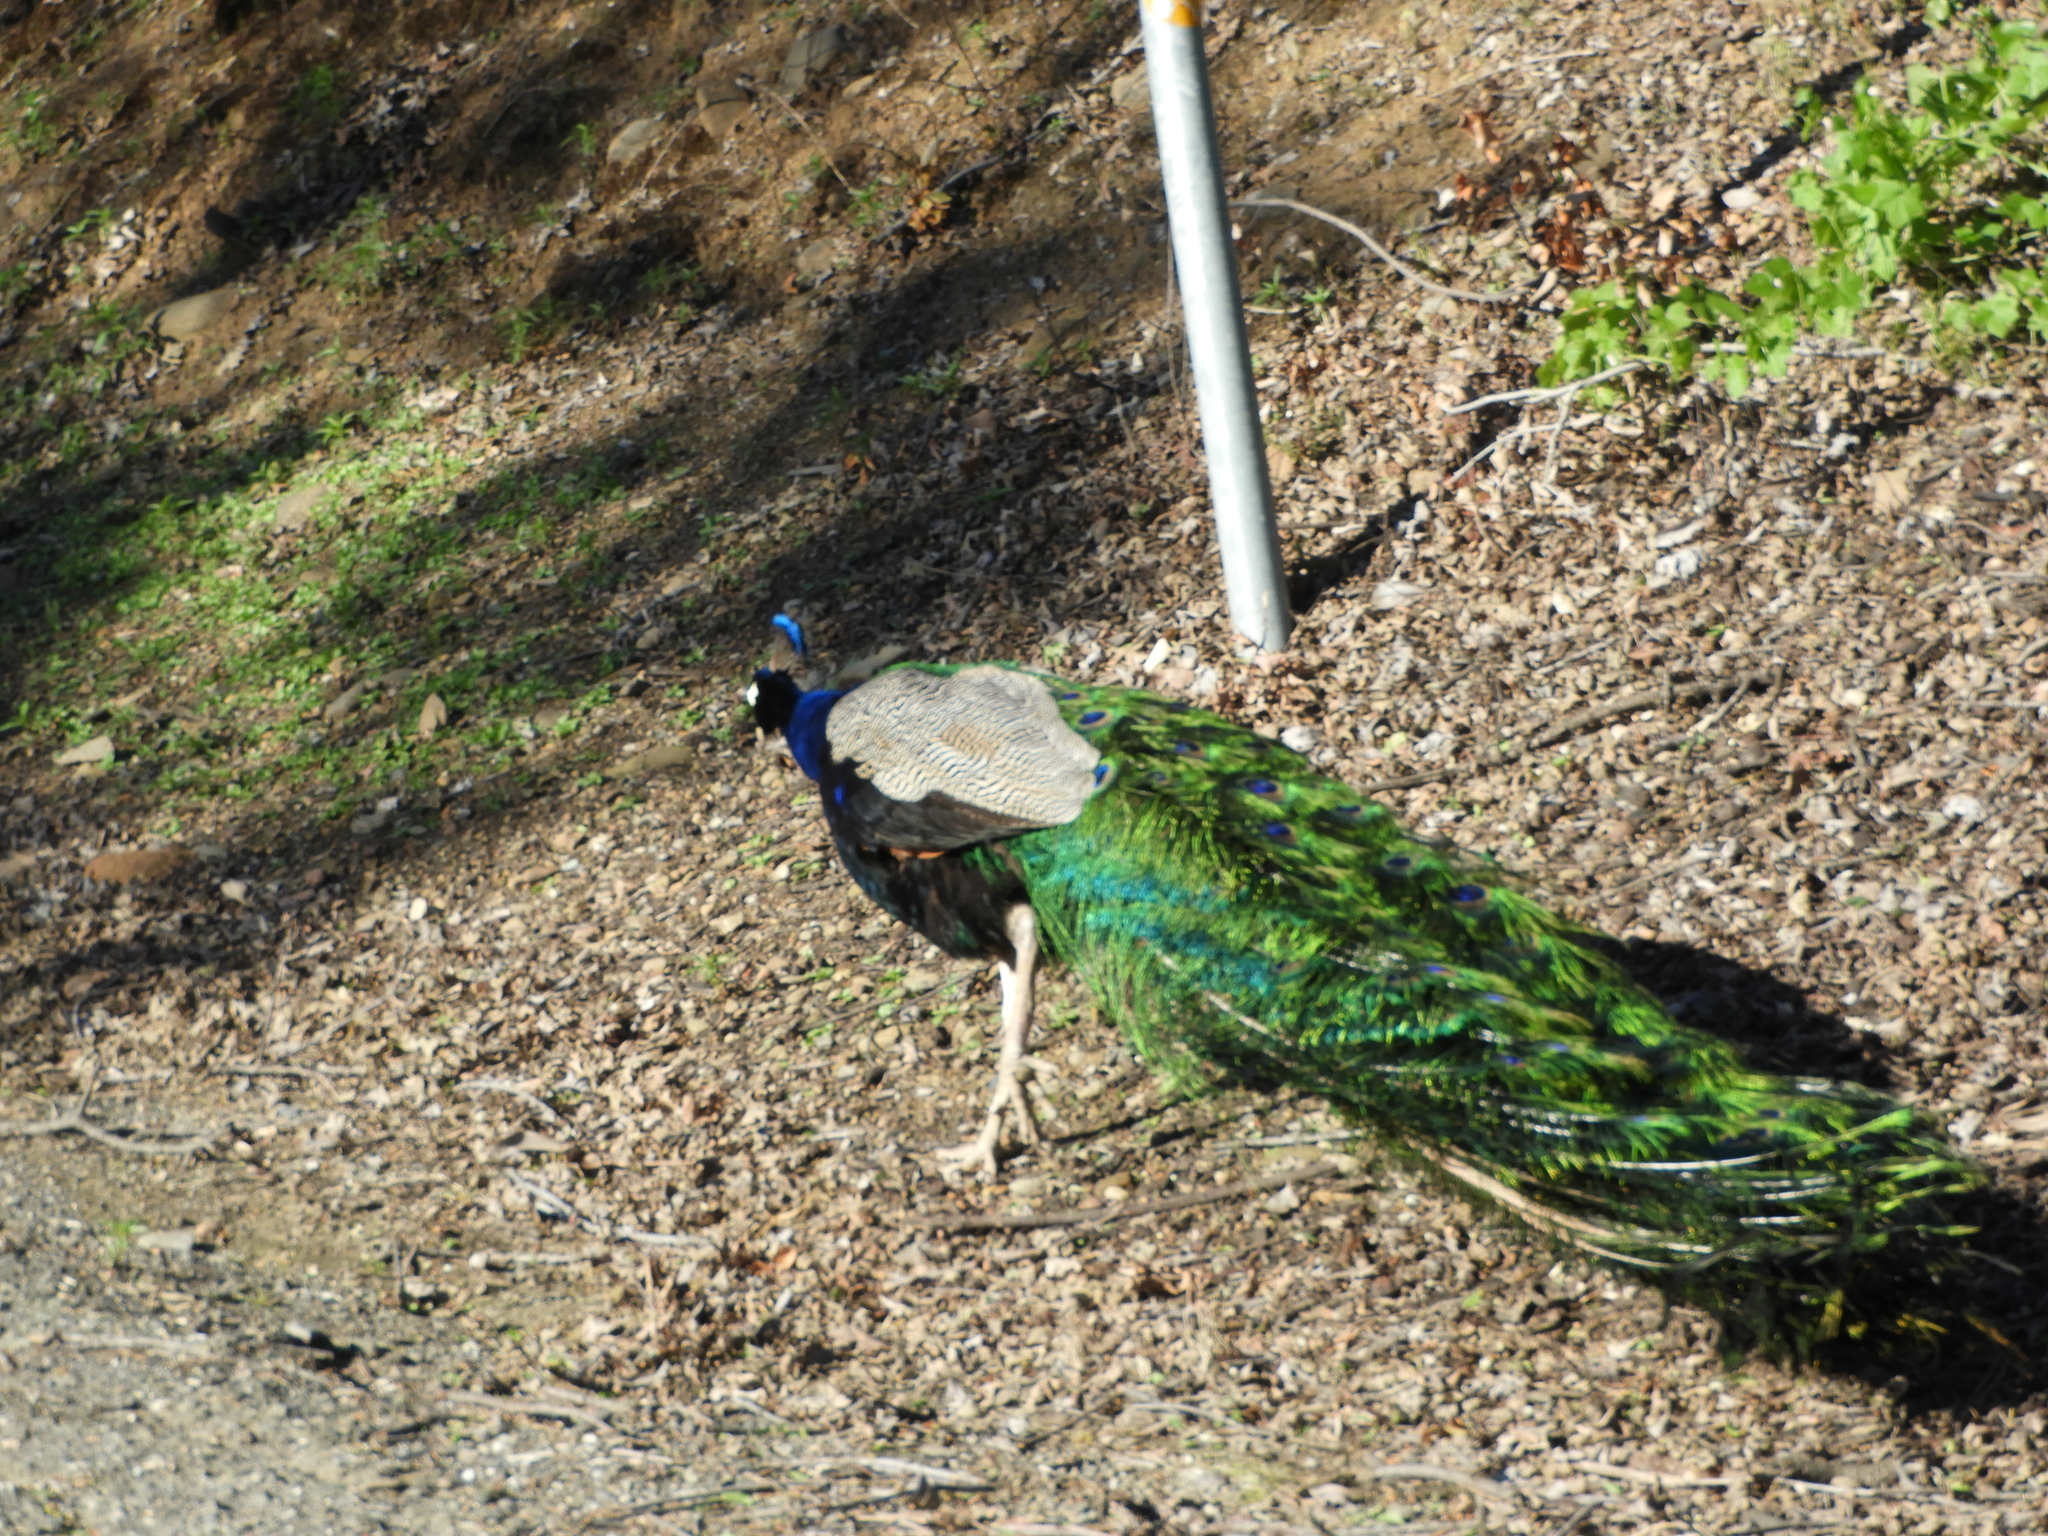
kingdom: Animalia
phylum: Chordata
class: Aves
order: Galliformes
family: Phasianidae
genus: Pavo
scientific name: Pavo cristatus
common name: Indian peafowl
